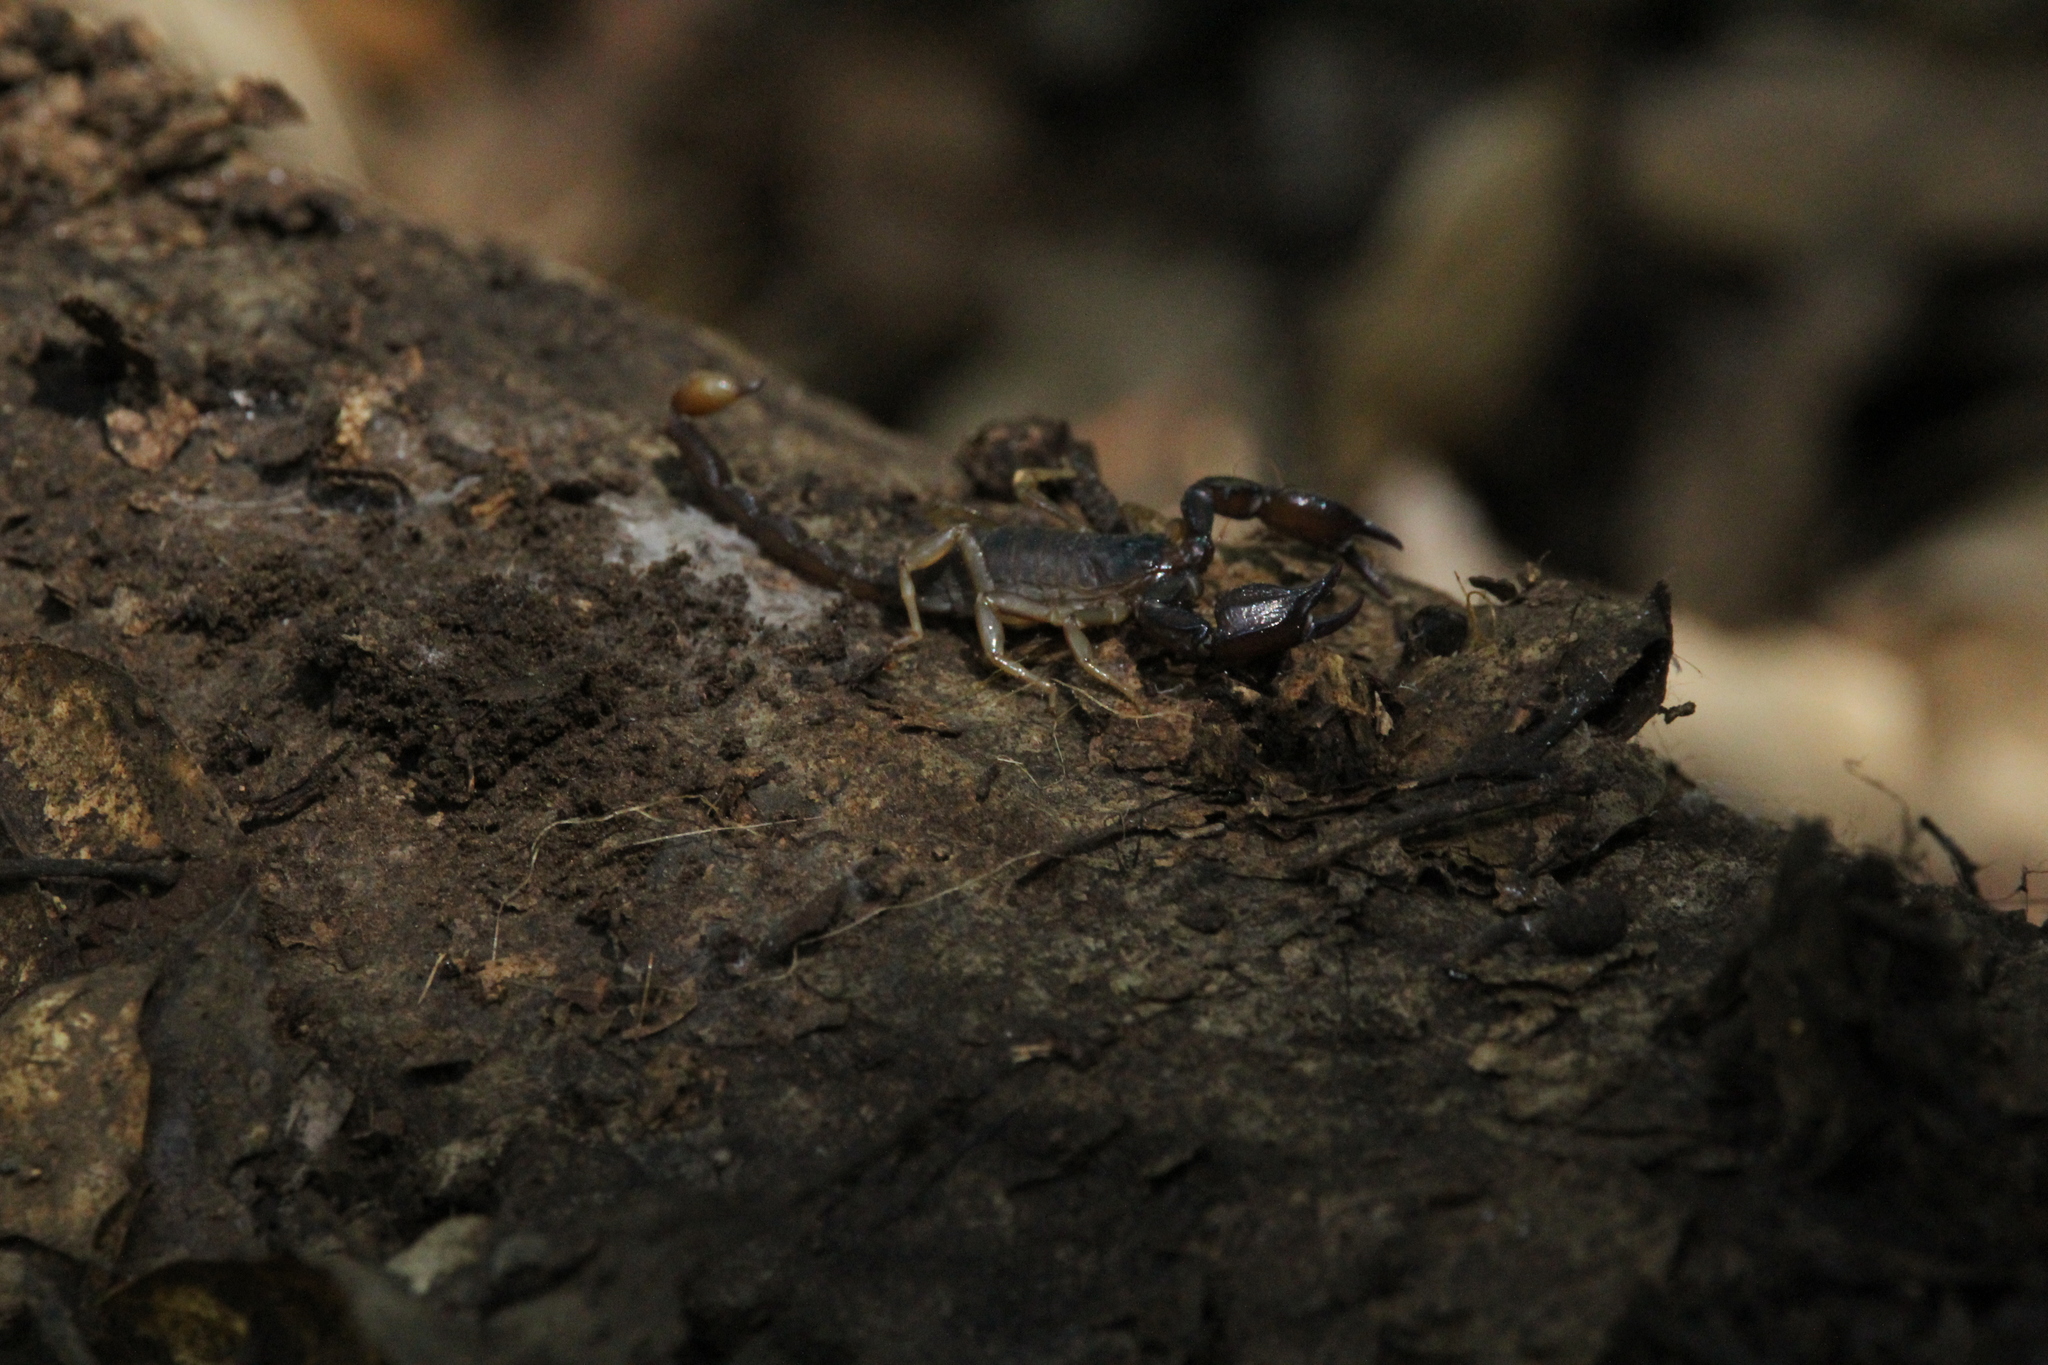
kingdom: Animalia
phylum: Arthropoda
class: Arachnida
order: Scorpiones
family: Chactidae
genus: Uroctonus
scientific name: Uroctonus mordax
